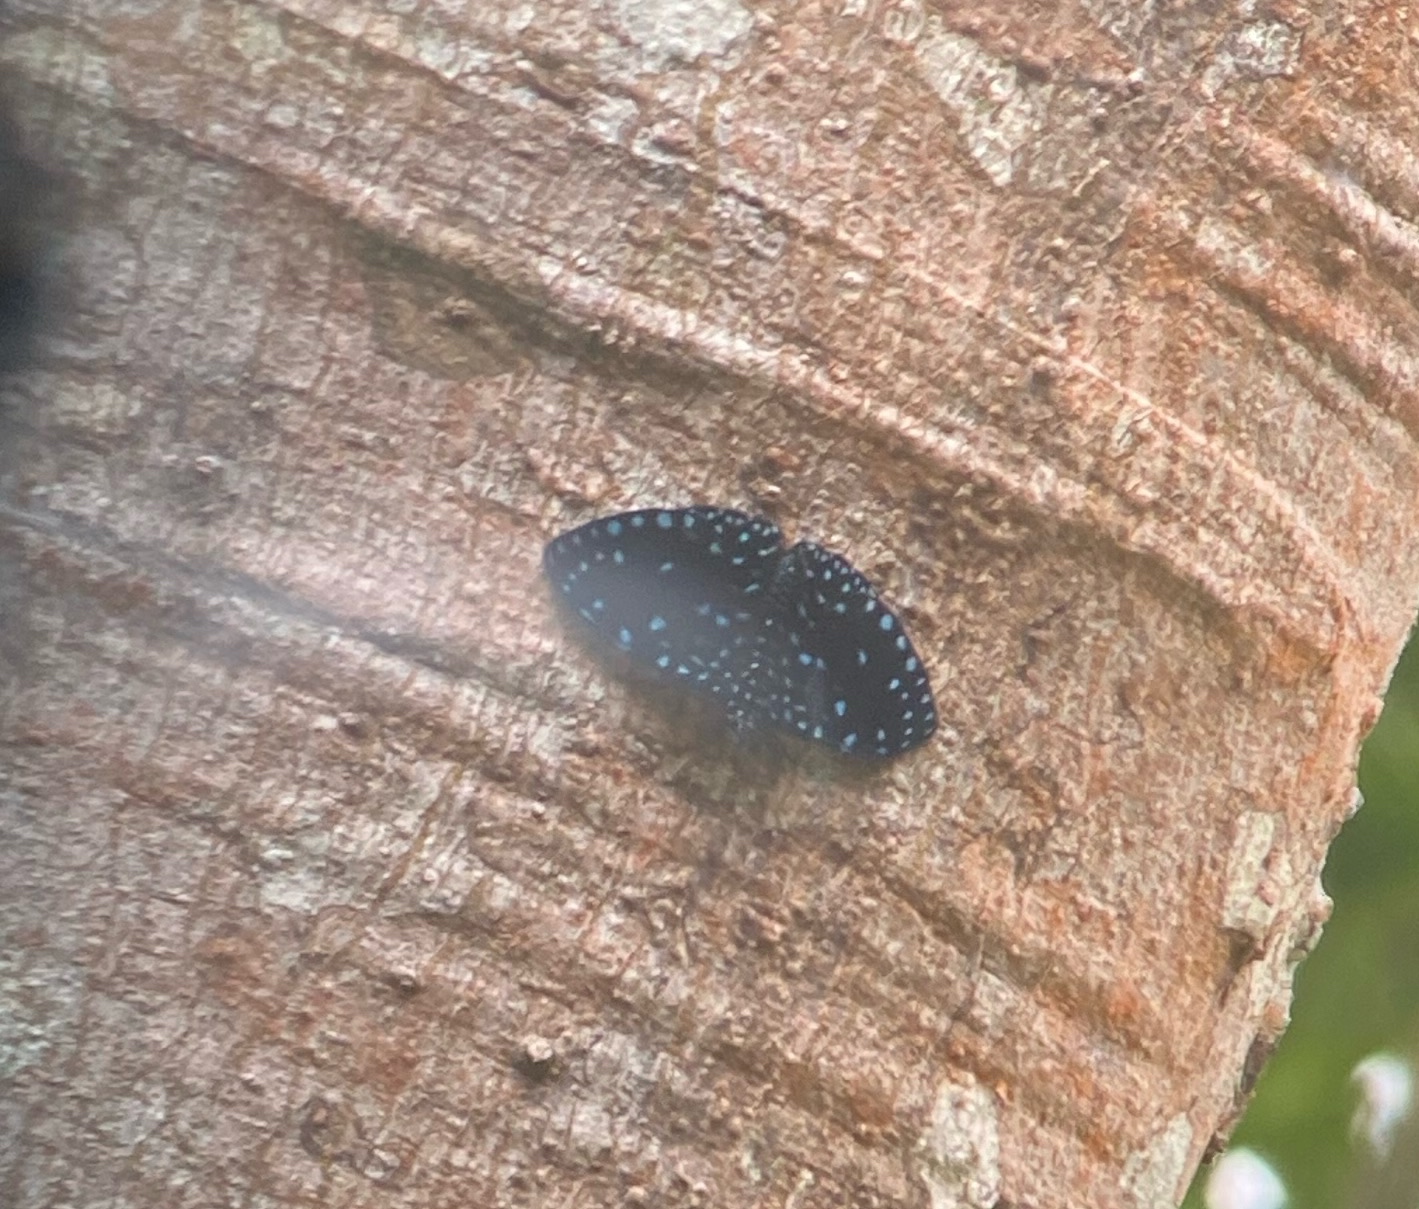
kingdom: Animalia
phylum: Arthropoda
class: Insecta
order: Lepidoptera
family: Nymphalidae
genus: Hamadryas
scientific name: Hamadryas laodamia
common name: Starry night cracker
